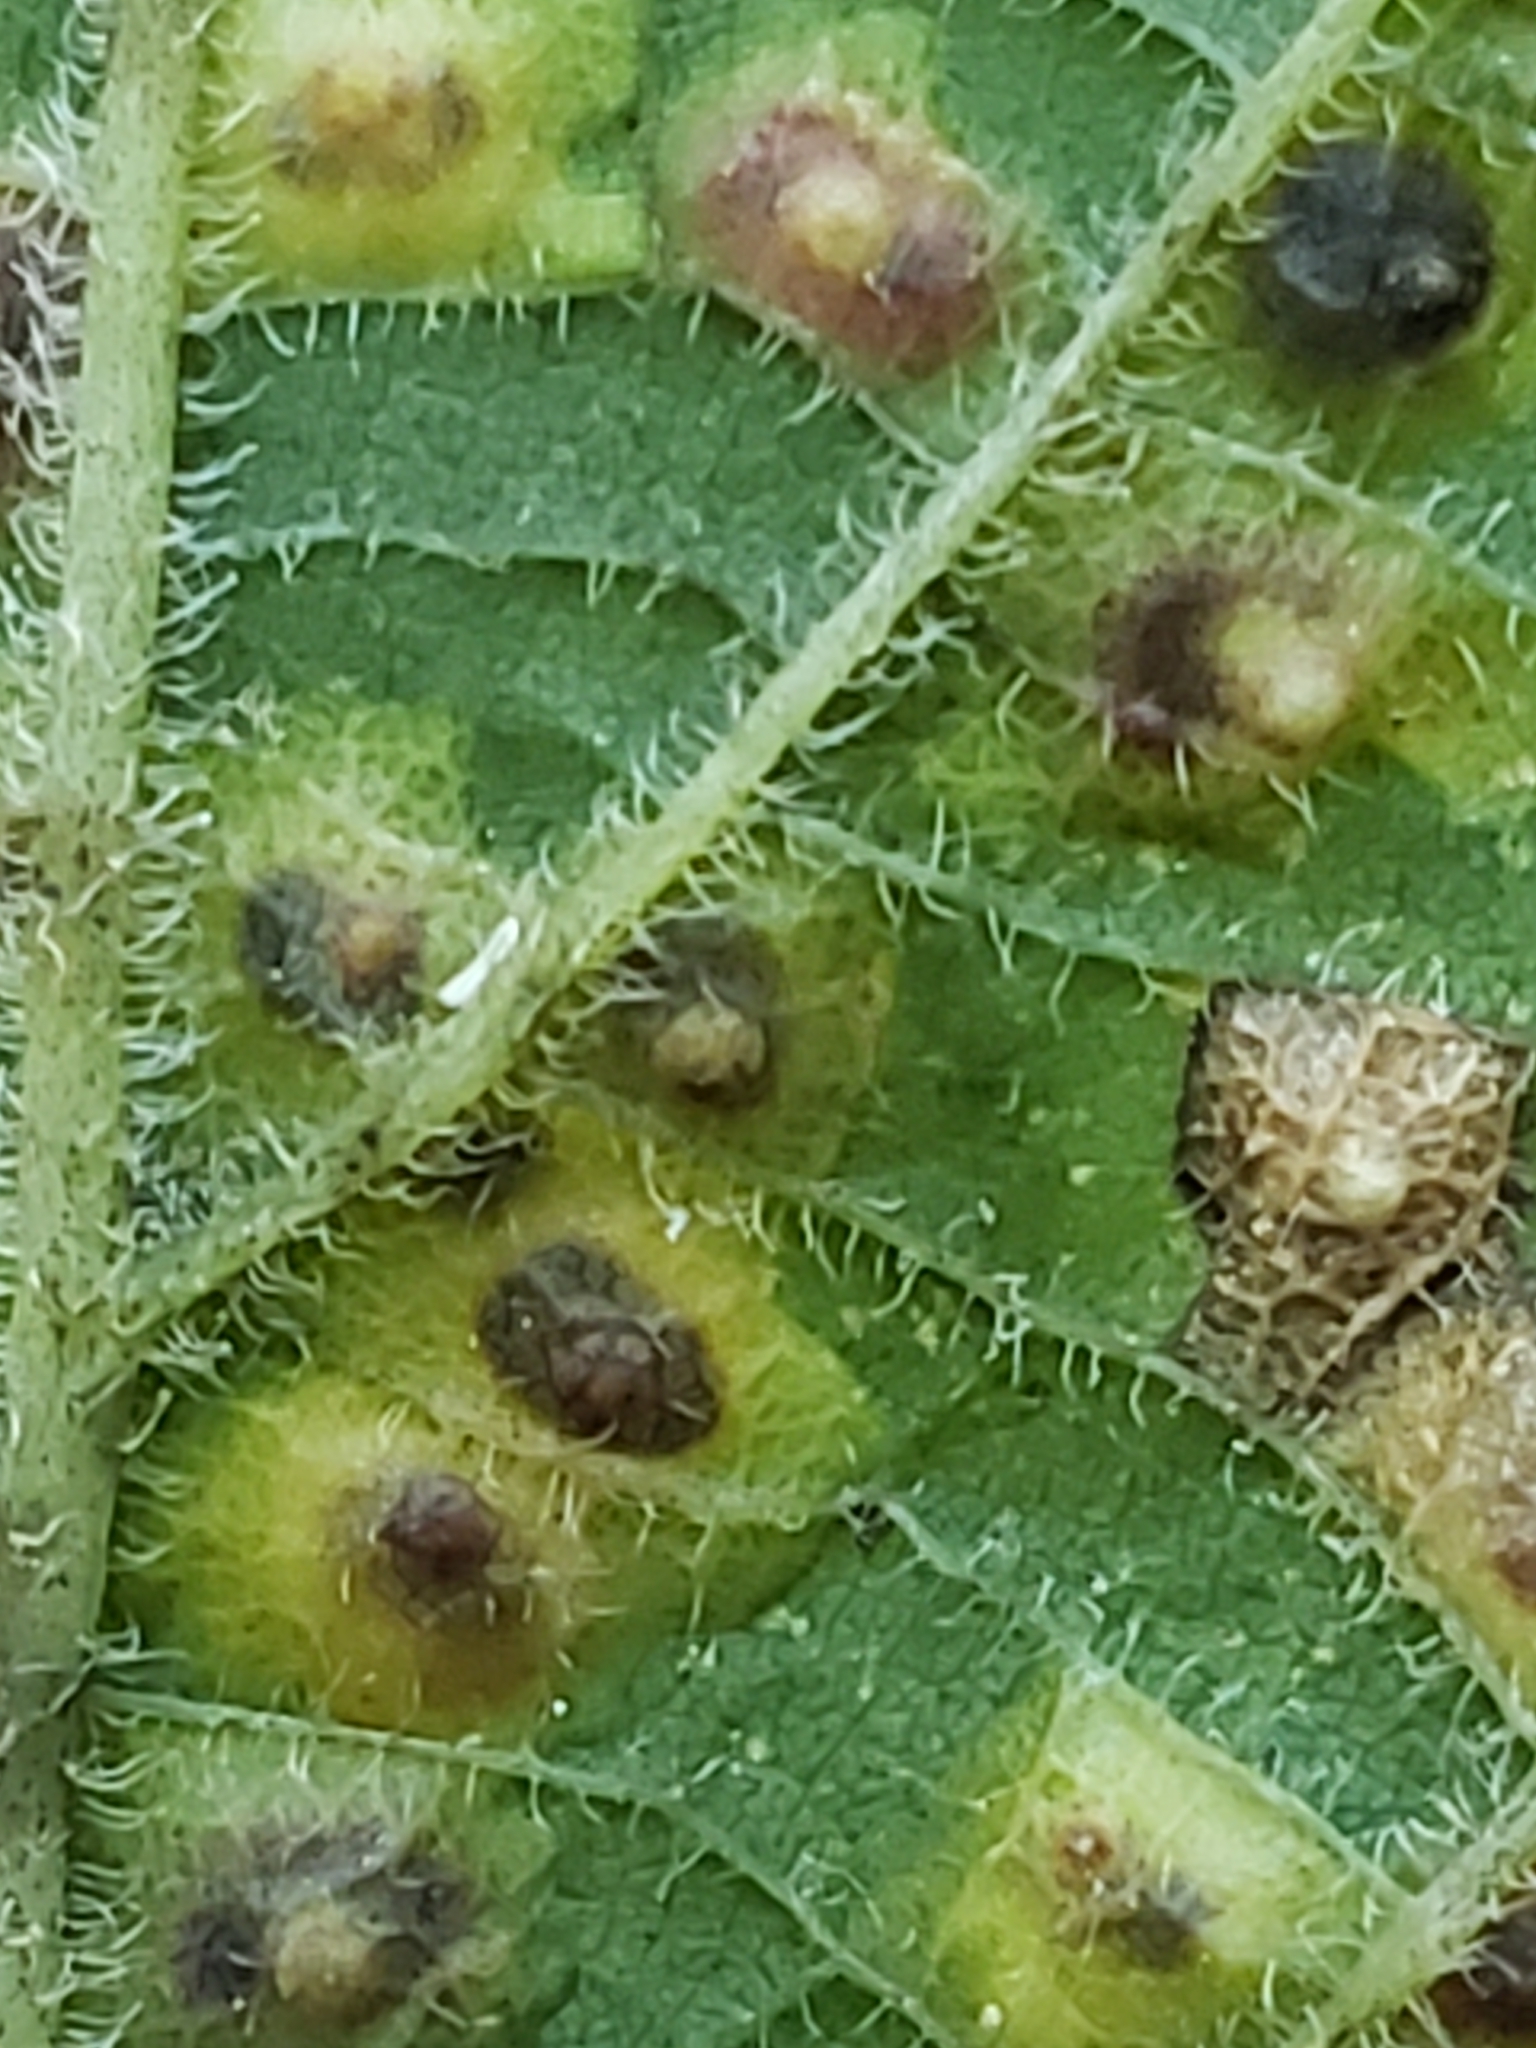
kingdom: Animalia
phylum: Arthropoda
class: Insecta
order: Hemiptera
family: Aphalaridae
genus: Pachypsylla
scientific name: Pachypsylla celtidisvesicula
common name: Hackberry blister gall psyllid
